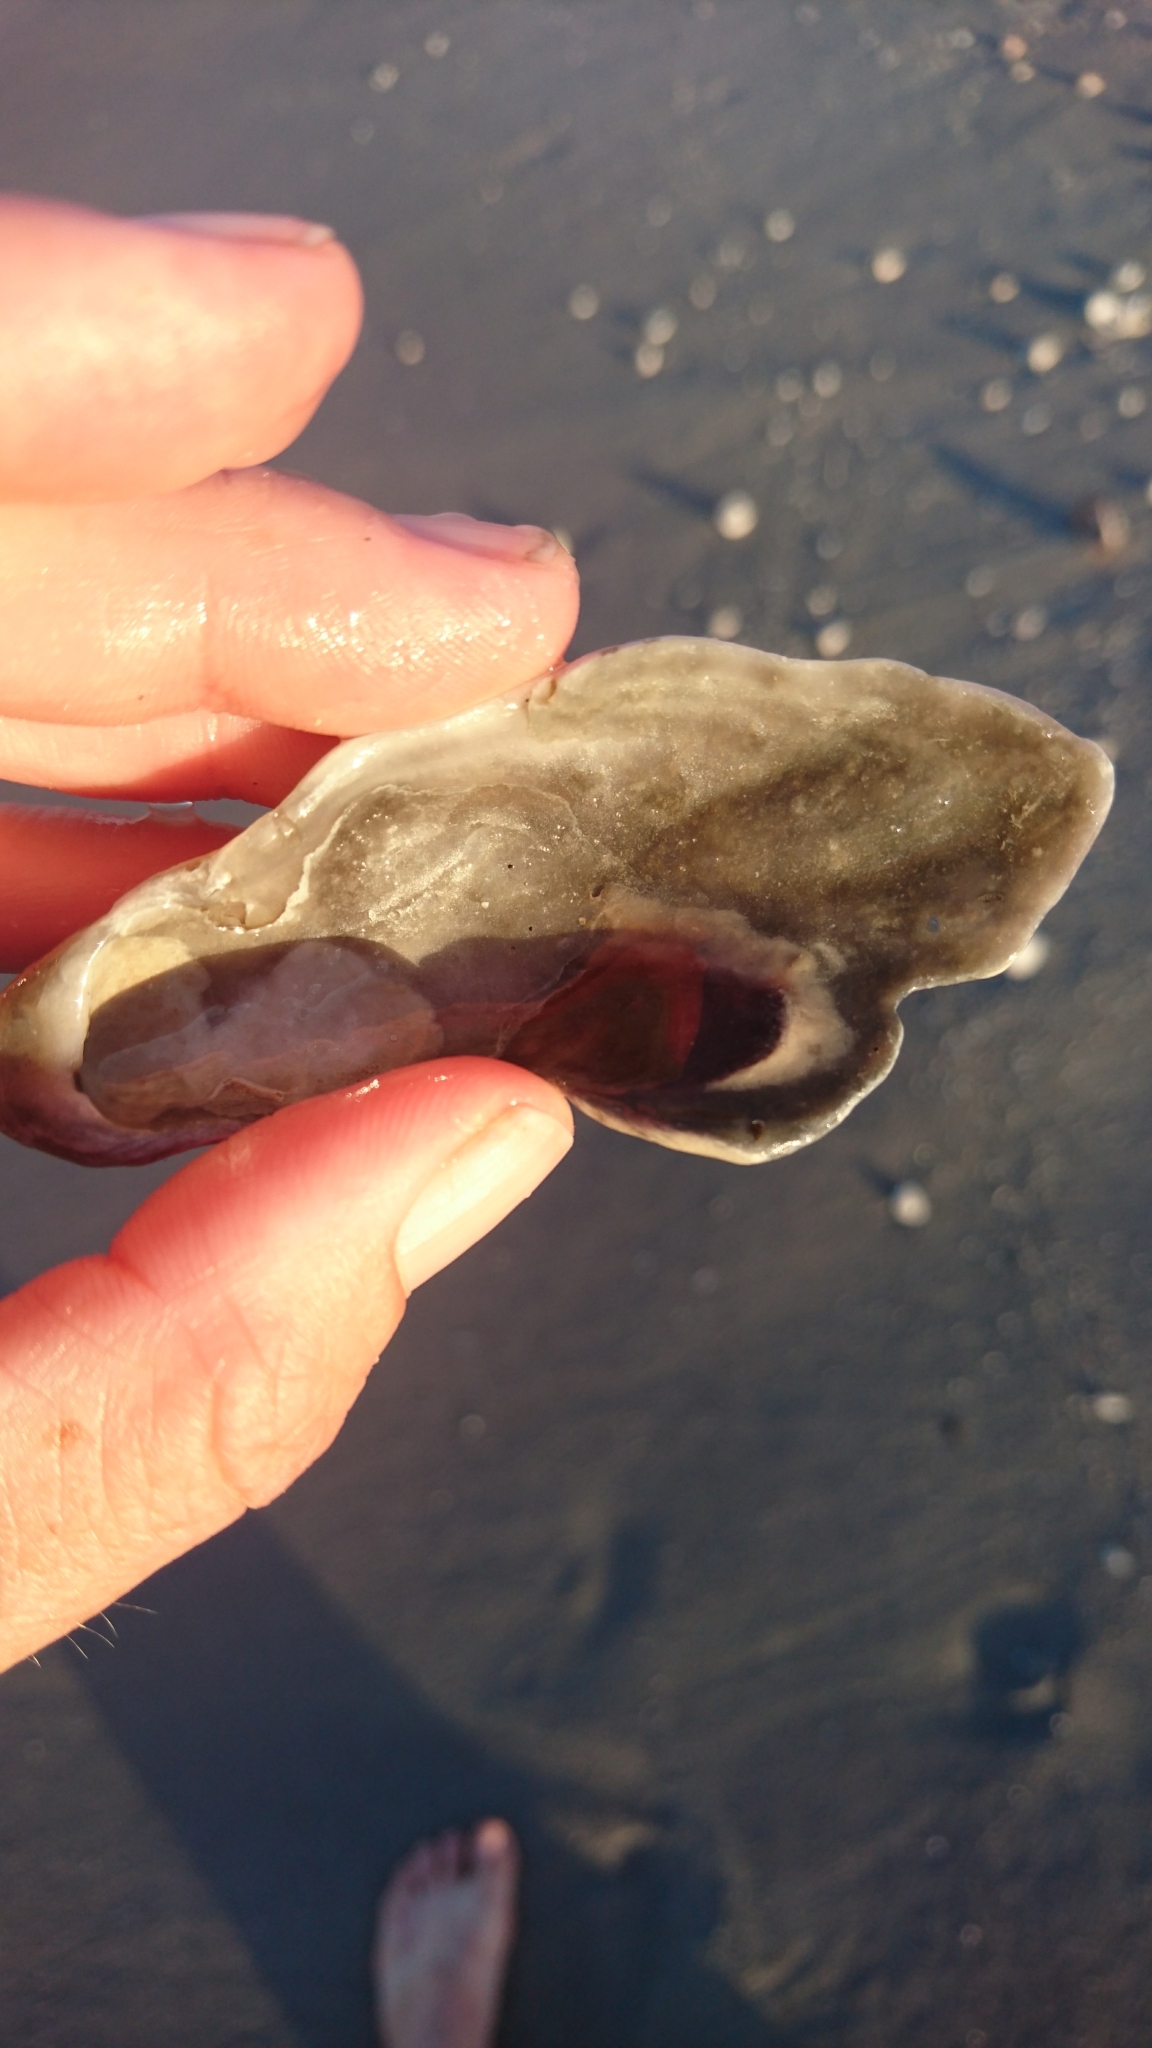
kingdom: Animalia
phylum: Mollusca
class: Bivalvia
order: Ostreida
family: Ostreidae
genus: Crassostrea
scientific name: Crassostrea virginica
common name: American oyster
